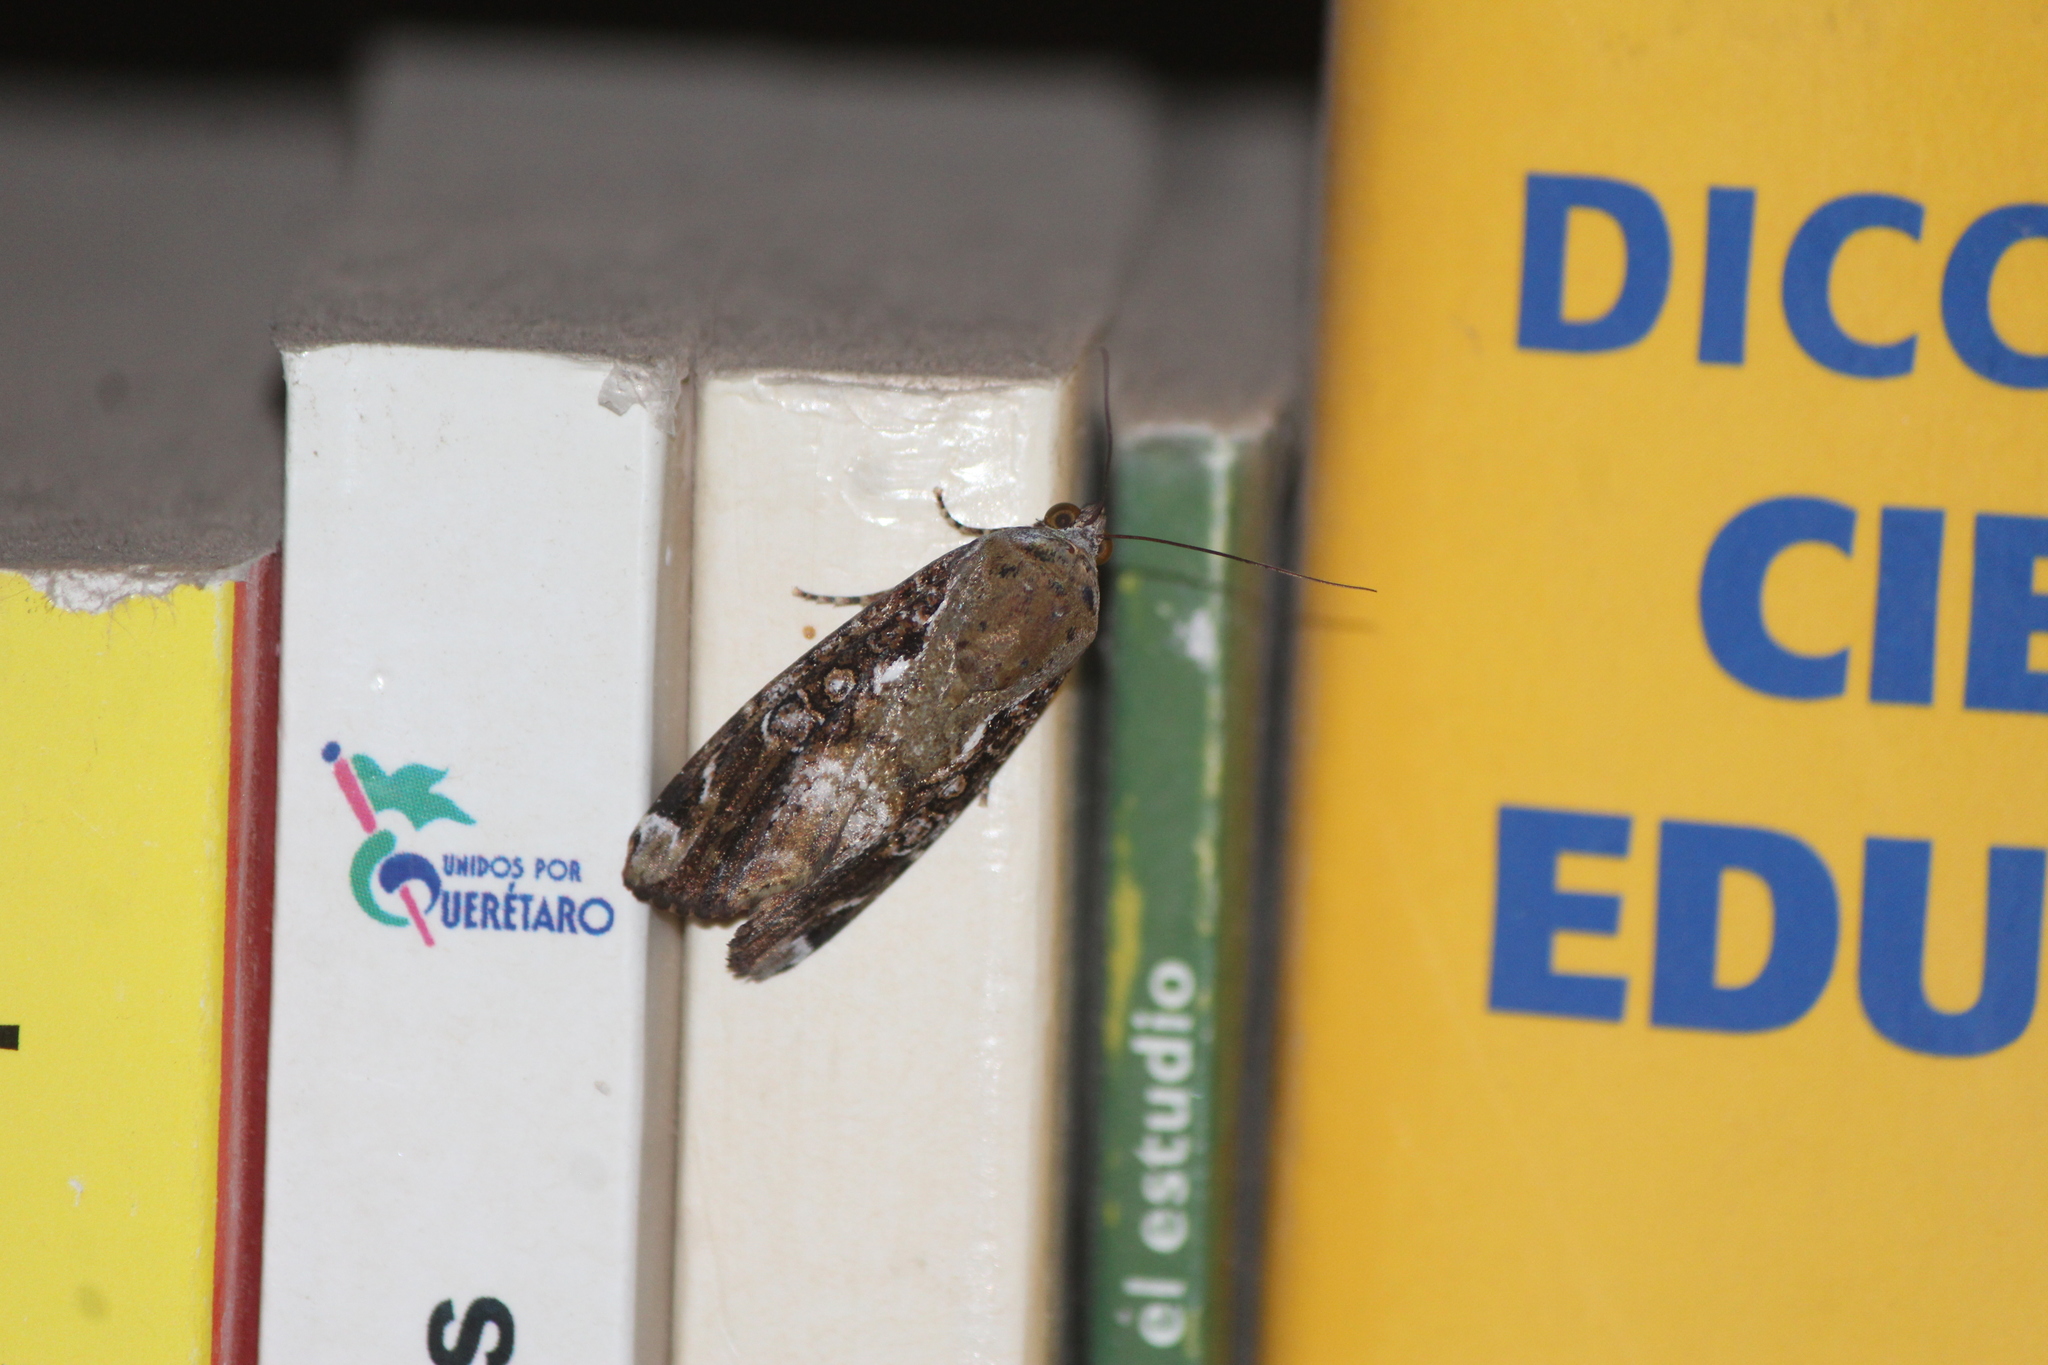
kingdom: Animalia
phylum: Arthropoda
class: Insecta
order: Lepidoptera
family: Noctuidae
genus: Magusa
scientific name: Magusa divaricata
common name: Orb narrow-winged moth
